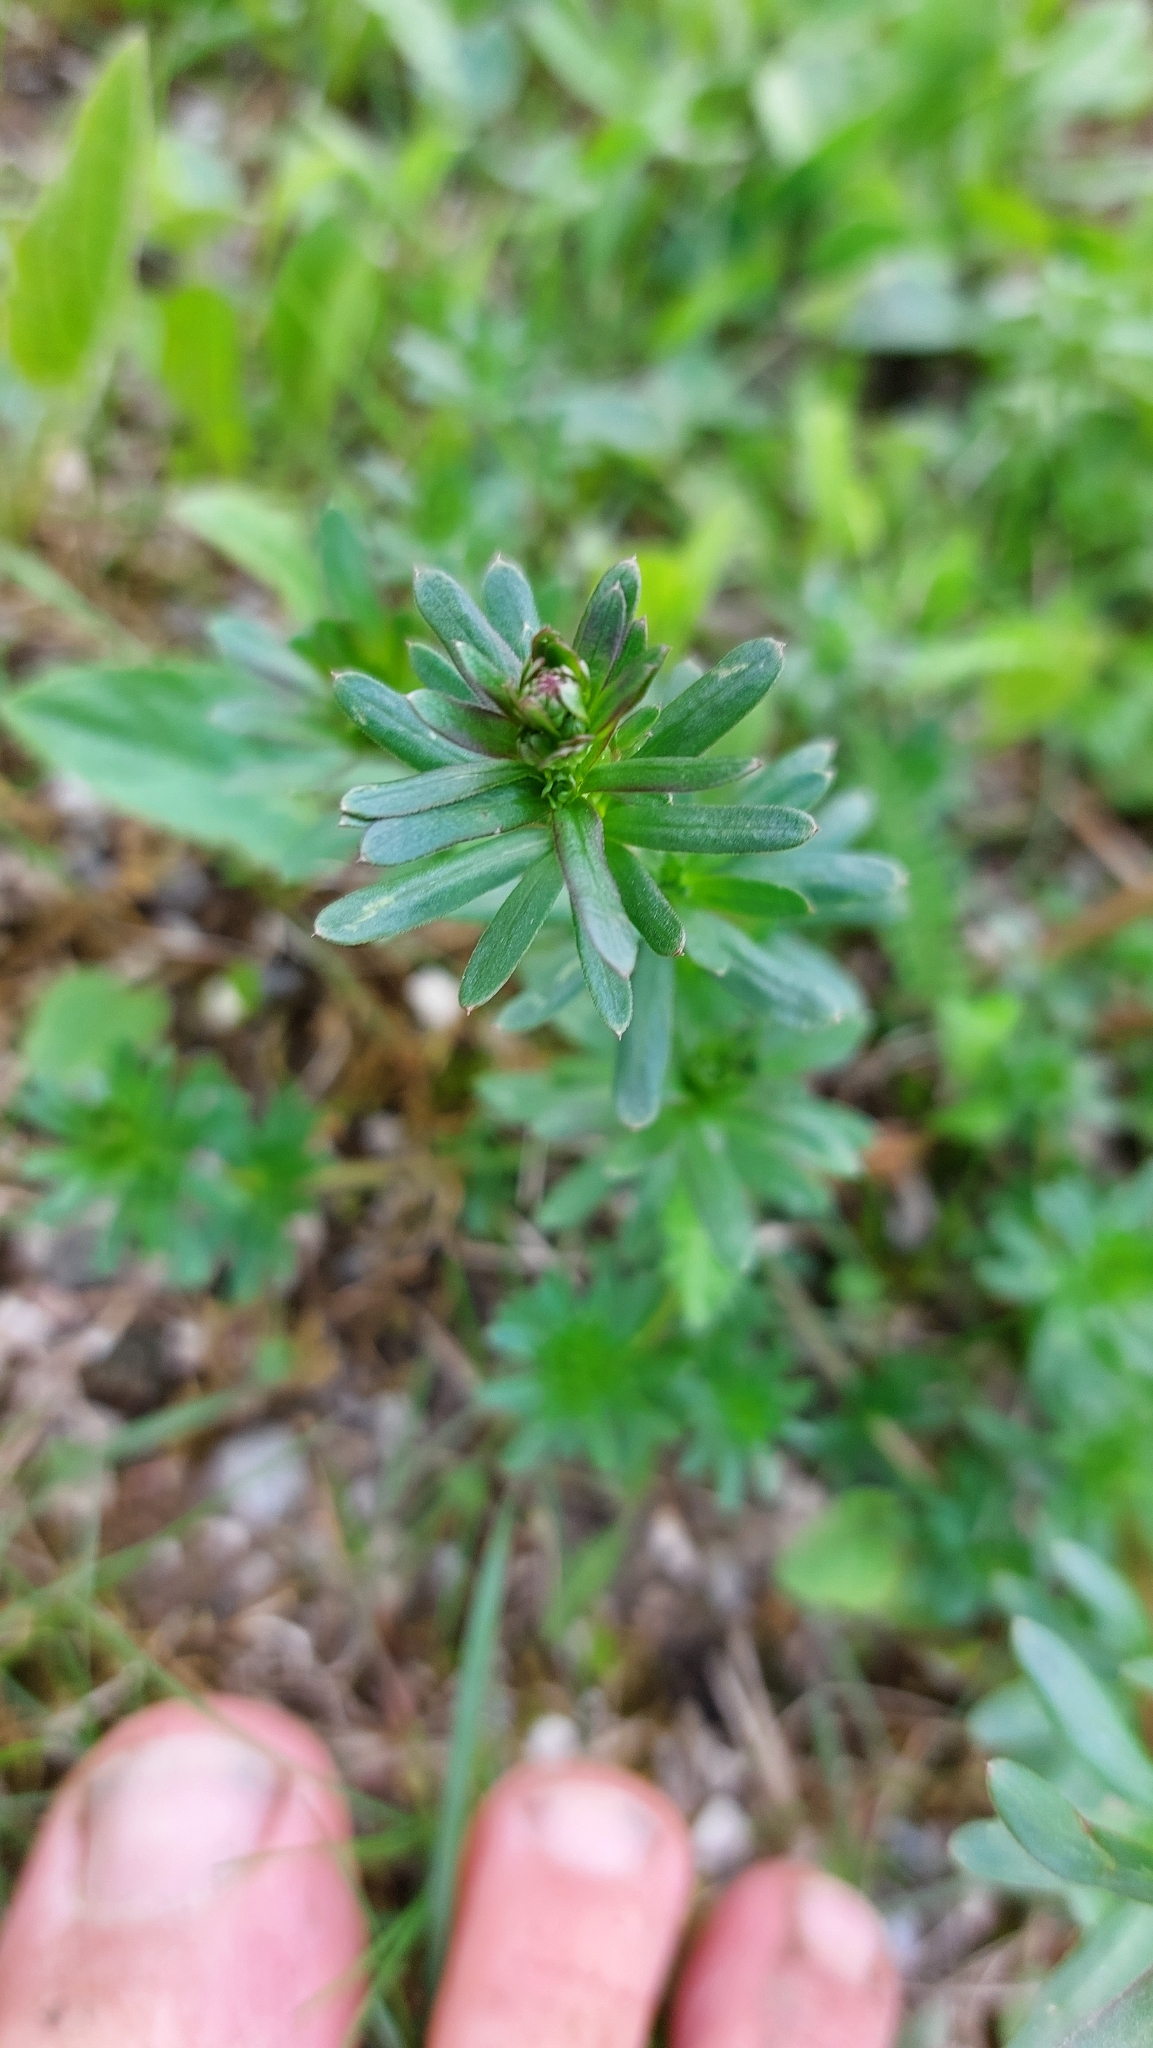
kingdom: Plantae
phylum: Tracheophyta
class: Magnoliopsida
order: Gentianales
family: Rubiaceae
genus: Galium
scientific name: Galium album
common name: White bedstraw
